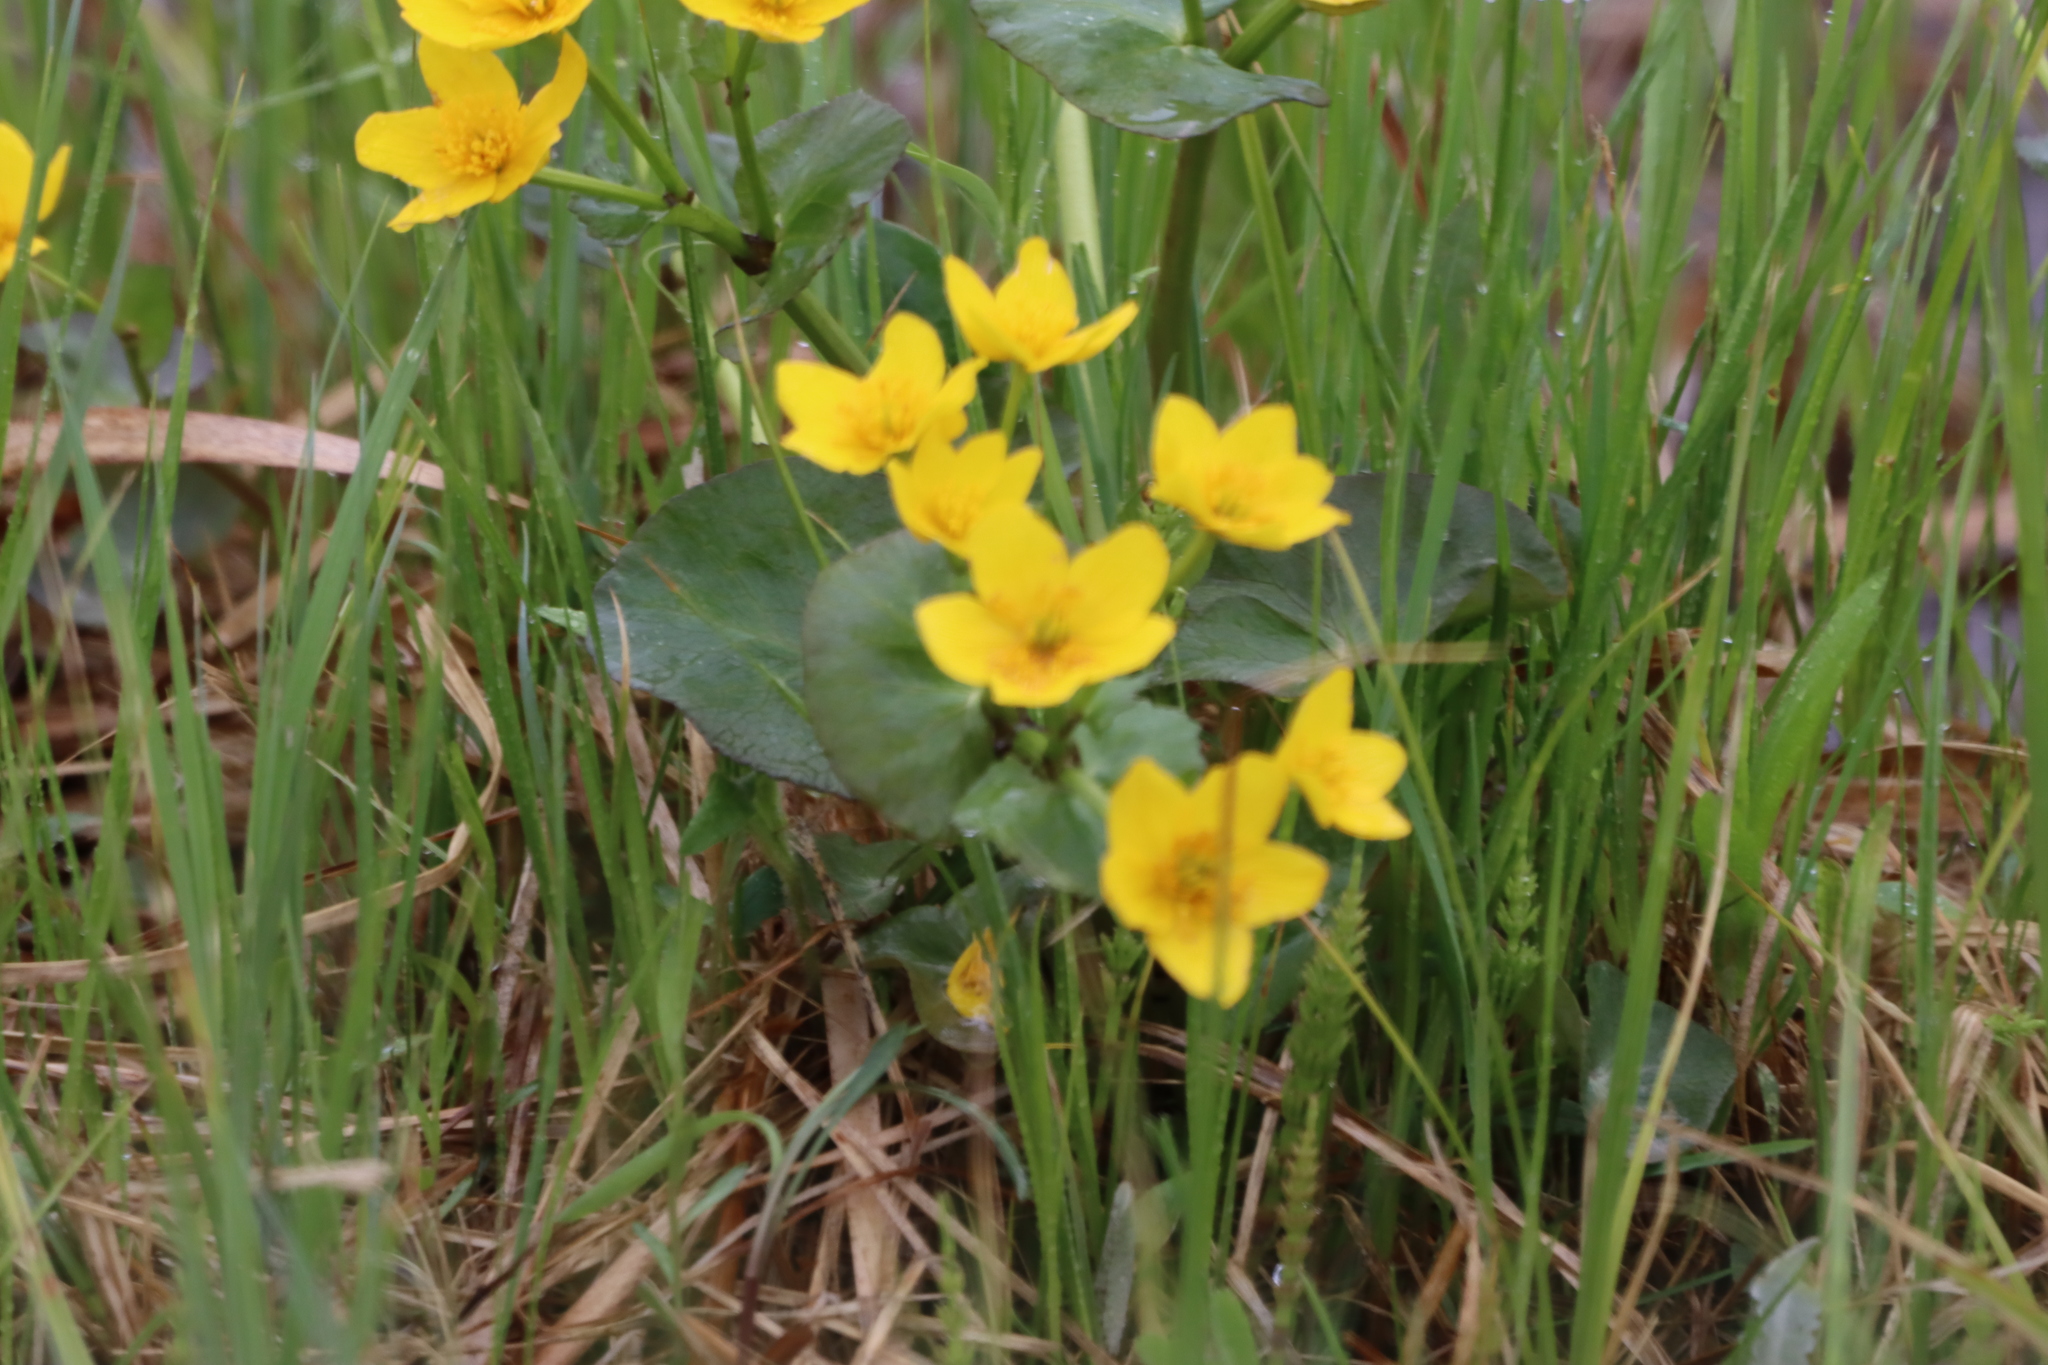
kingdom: Plantae
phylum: Tracheophyta
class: Magnoliopsida
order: Ranunculales
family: Ranunculaceae
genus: Caltha
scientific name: Caltha palustris
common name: Marsh marigold
